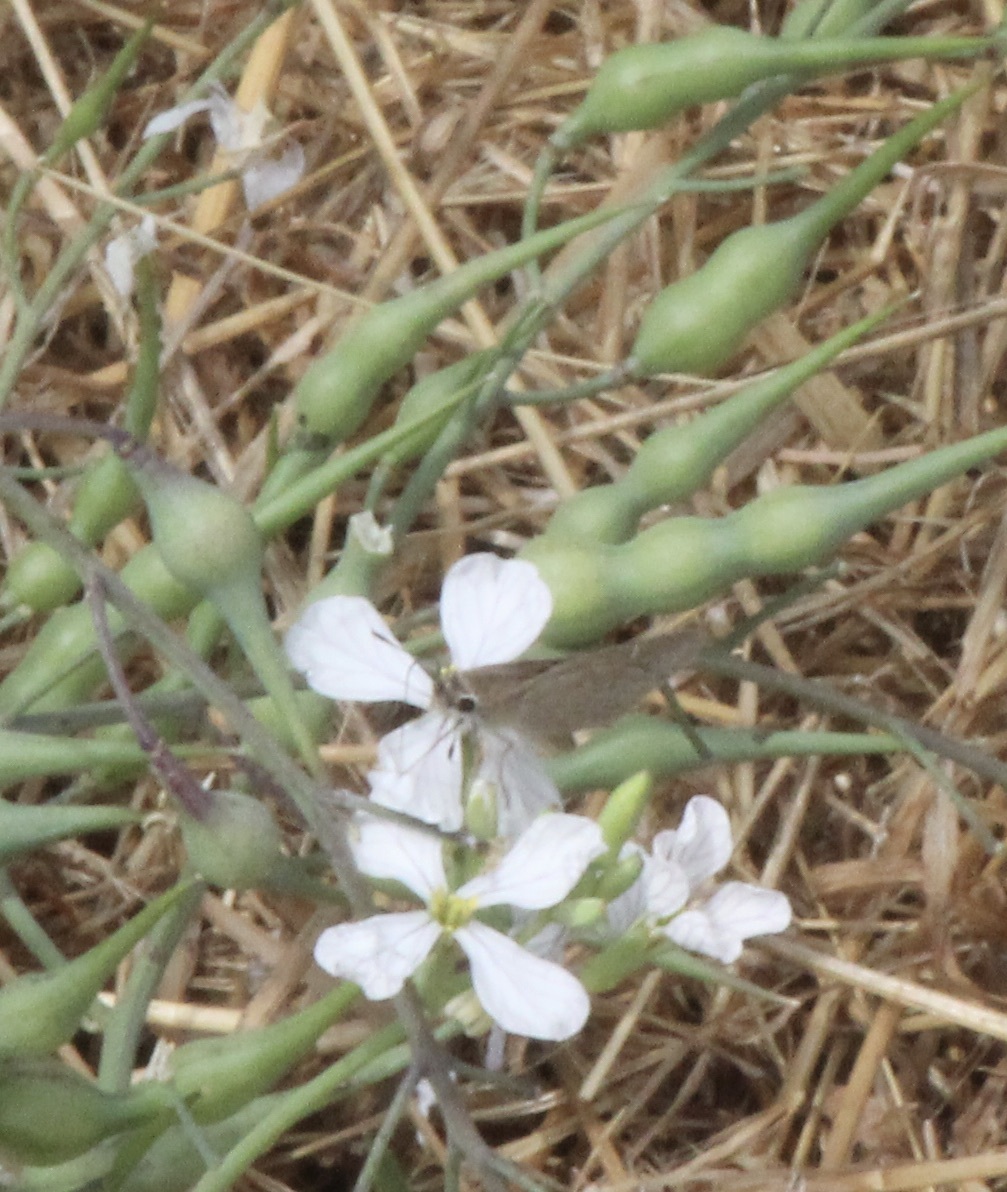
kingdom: Animalia
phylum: Arthropoda
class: Insecta
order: Lepidoptera
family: Hesperiidae
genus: Lerodea
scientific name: Lerodea eufala
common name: Eufala skipper
